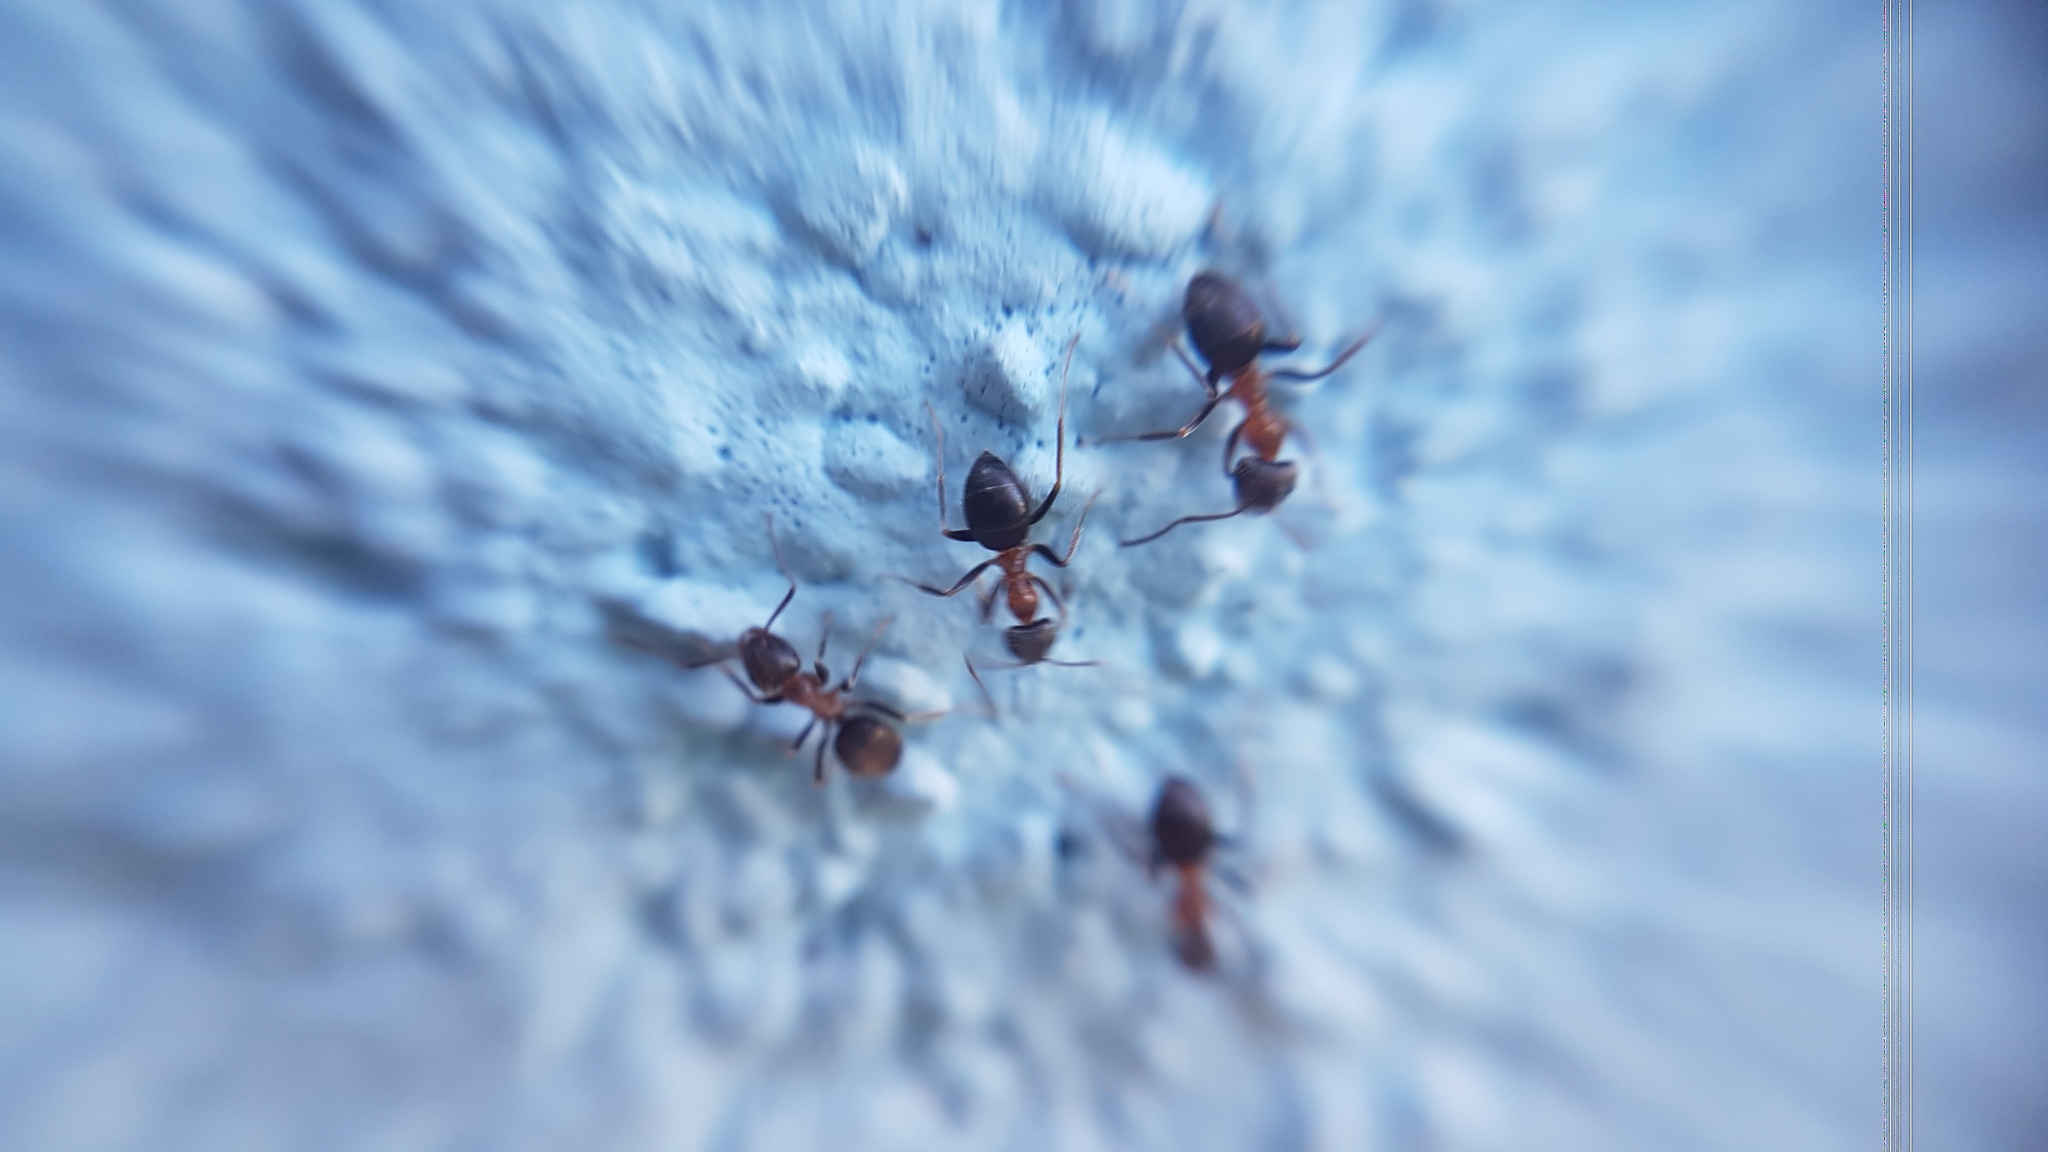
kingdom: Animalia
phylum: Arthropoda
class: Insecta
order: Hymenoptera
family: Formicidae
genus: Lasius
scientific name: Lasius emarginatus
